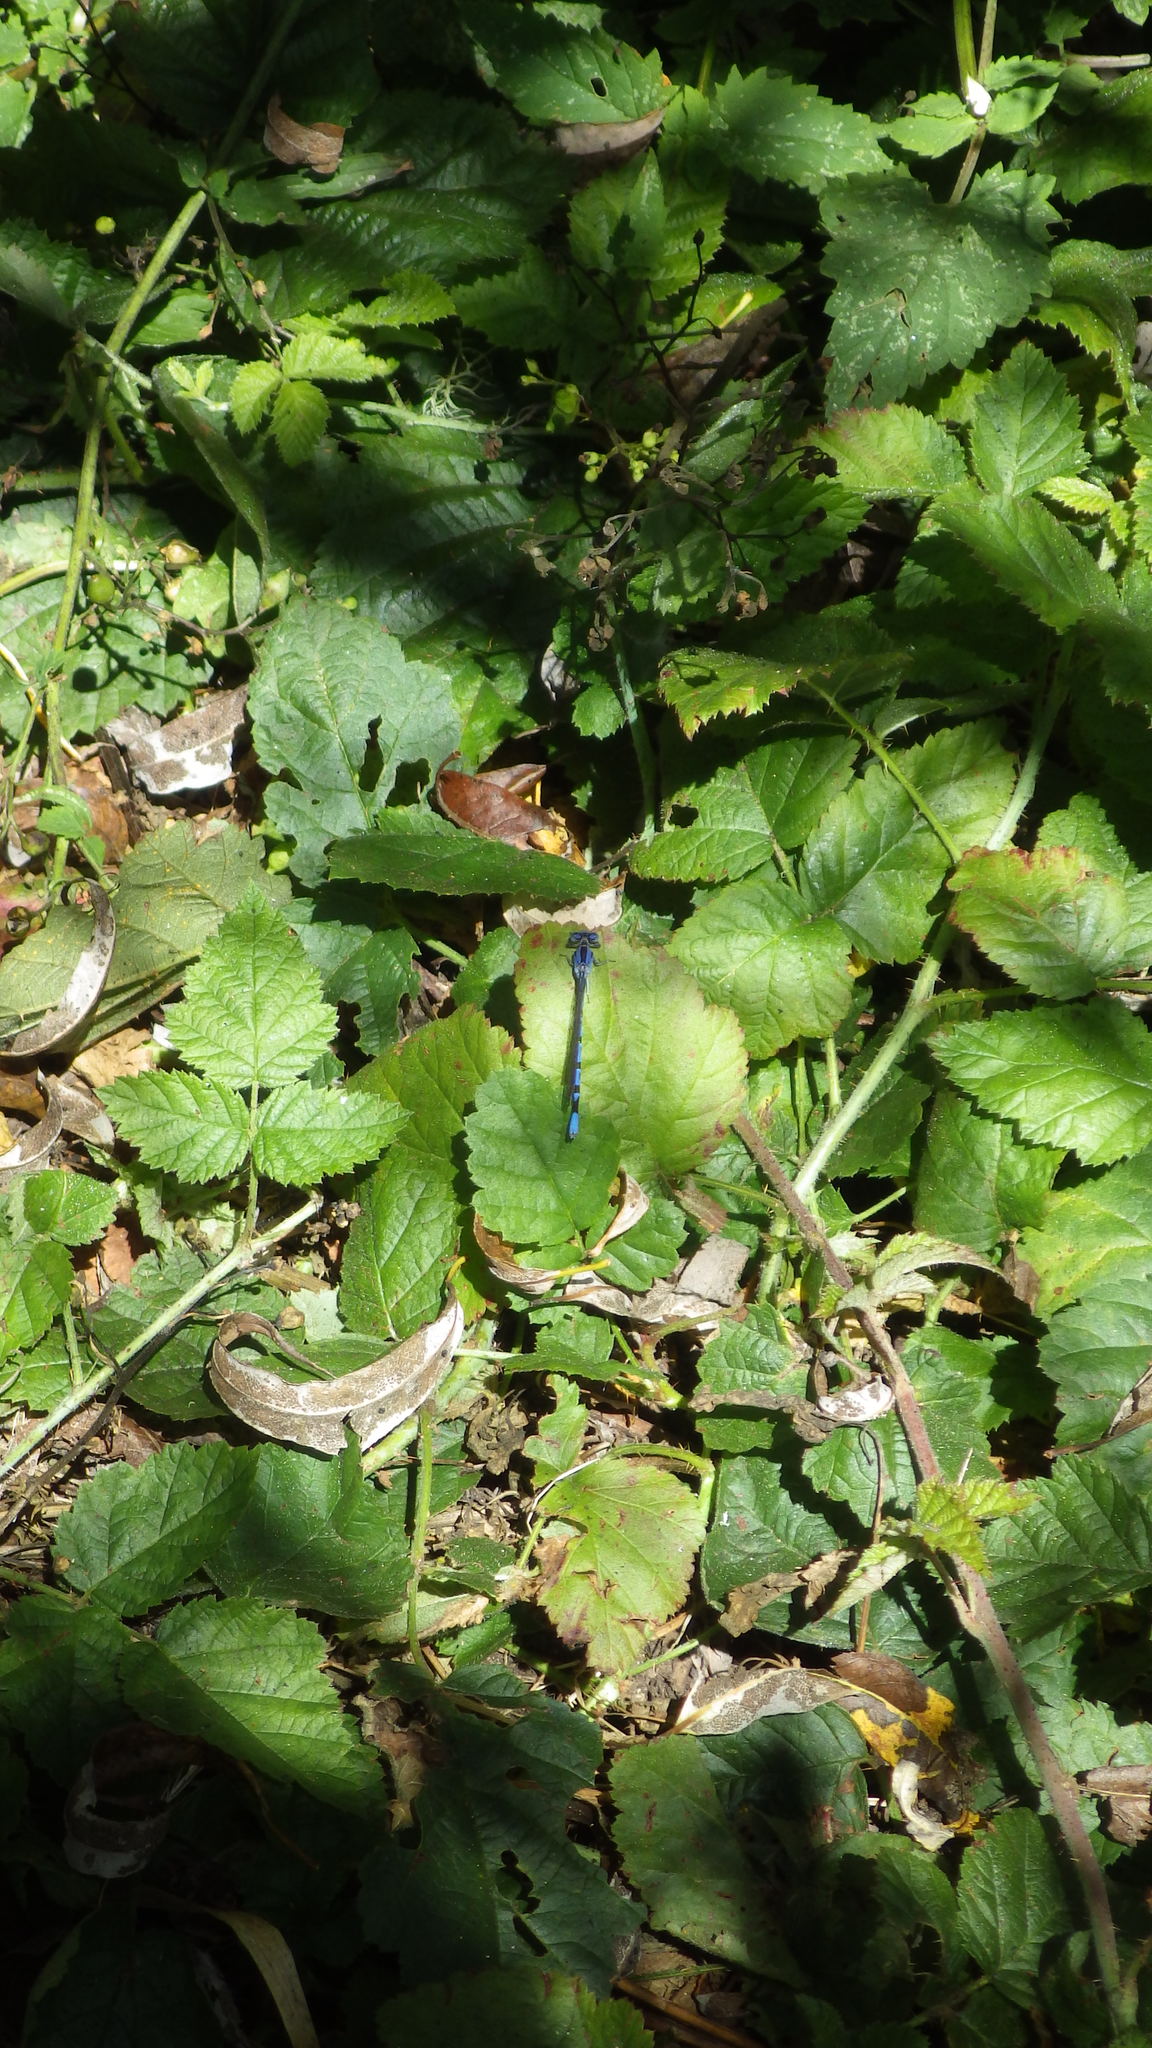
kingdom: Animalia
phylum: Arthropoda
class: Insecta
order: Odonata
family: Coenagrionidae
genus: Argia
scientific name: Argia vivida
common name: Vivid dancer
